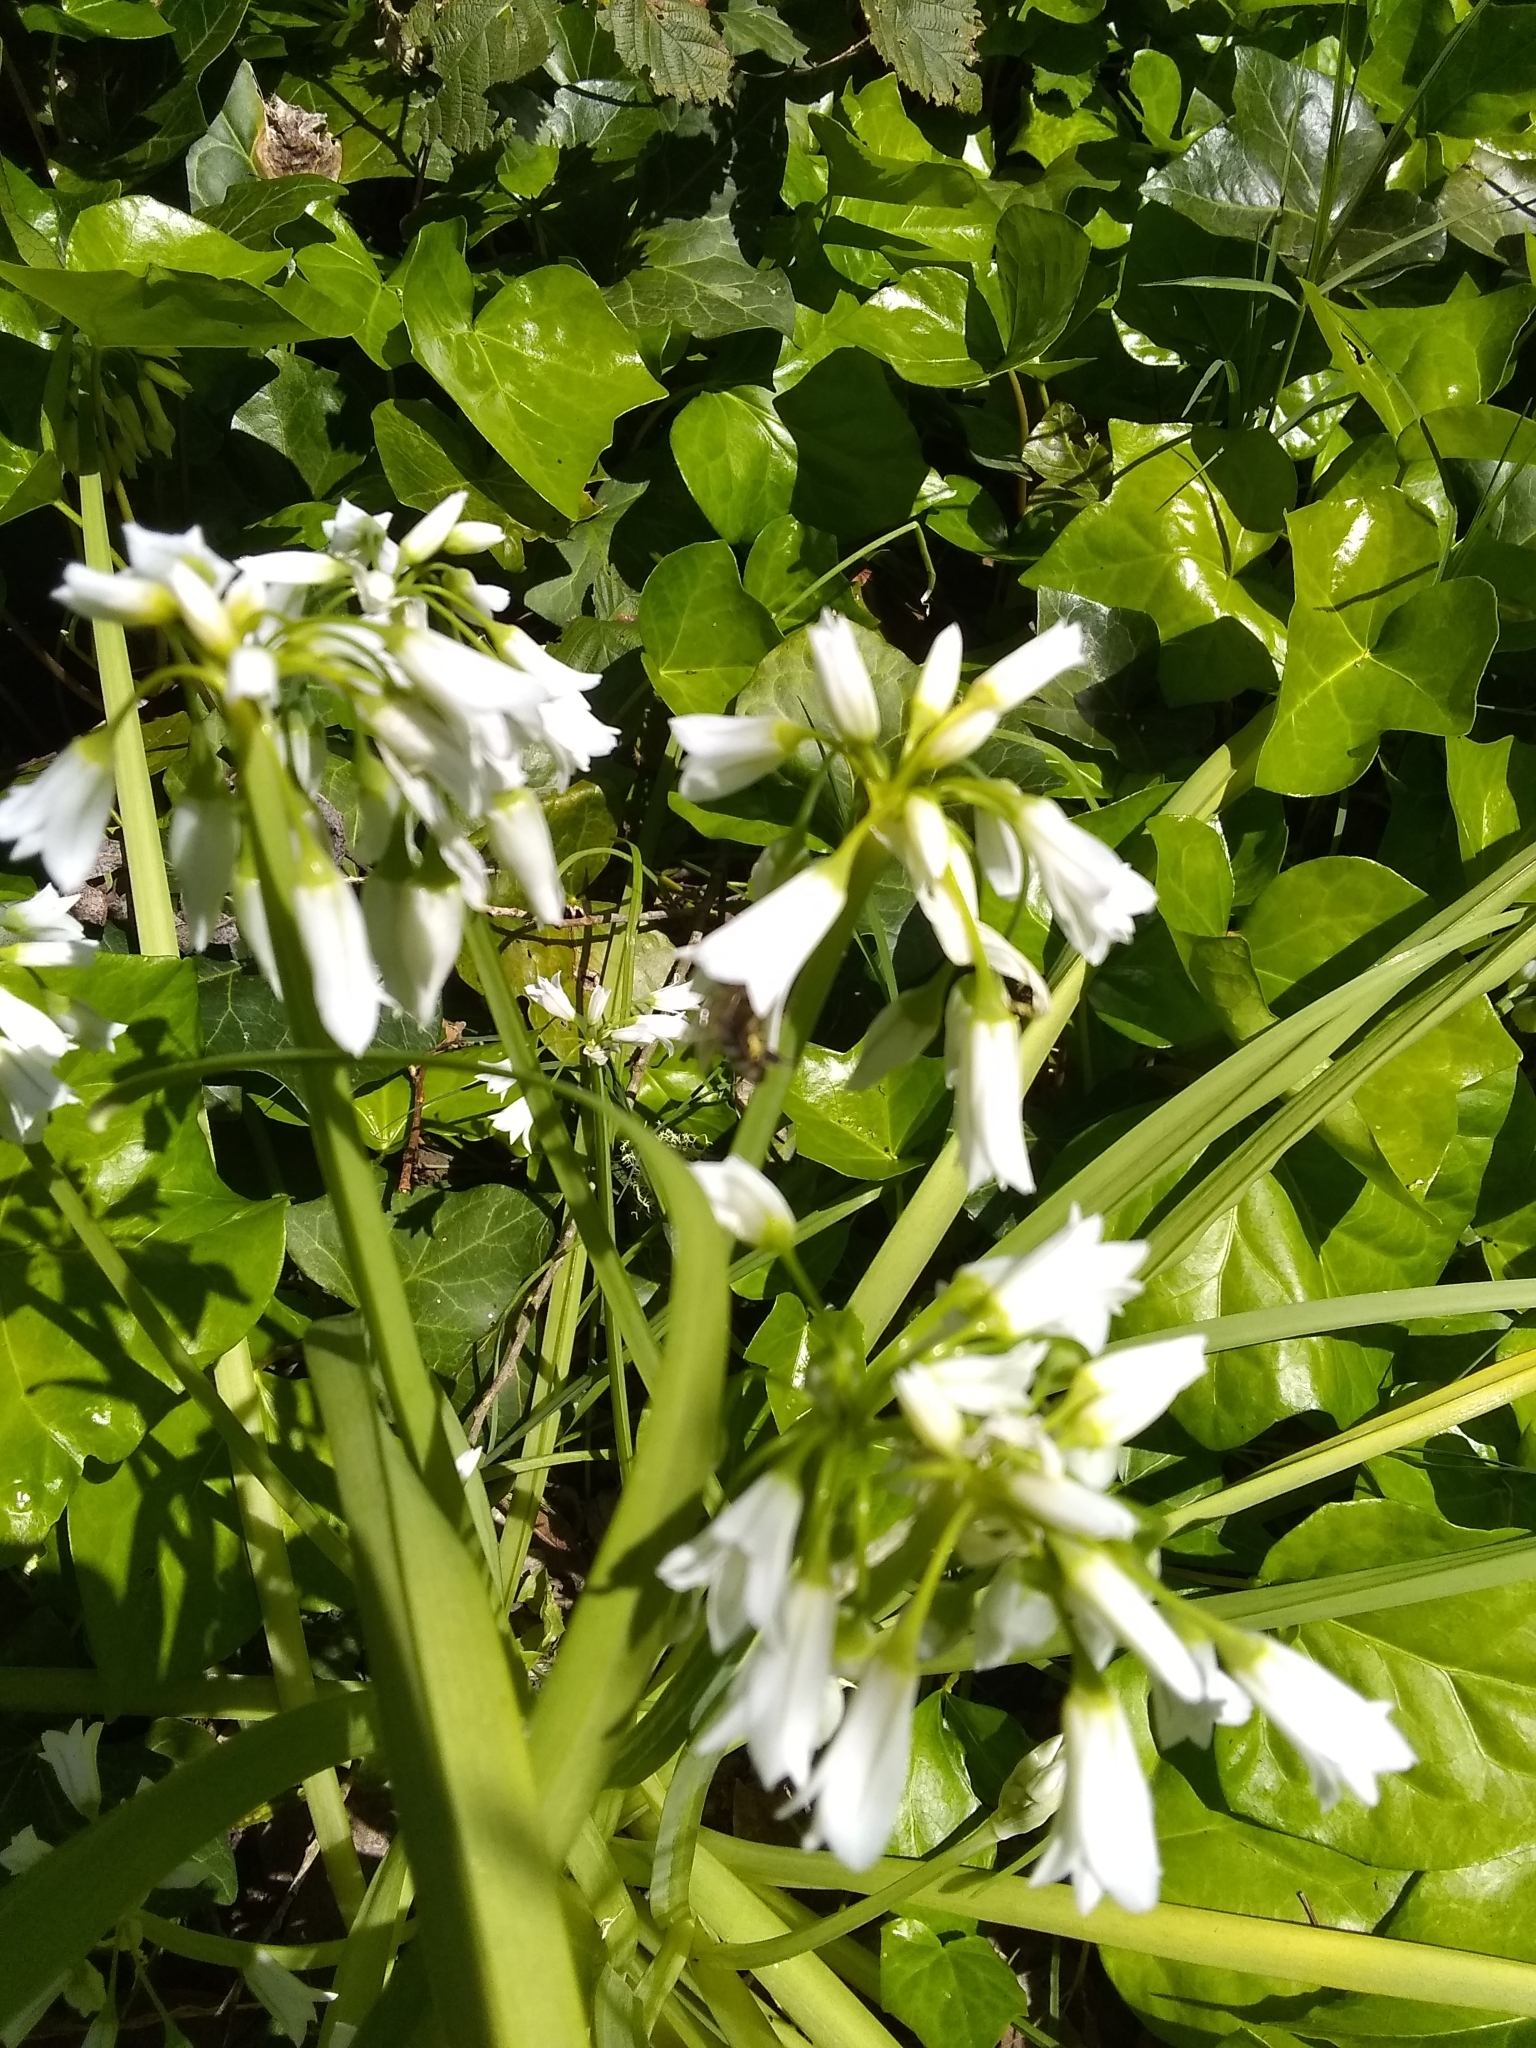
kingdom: Plantae
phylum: Tracheophyta
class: Liliopsida
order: Asparagales
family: Amaryllidaceae
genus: Allium
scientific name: Allium triquetrum
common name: Three-cornered garlic
